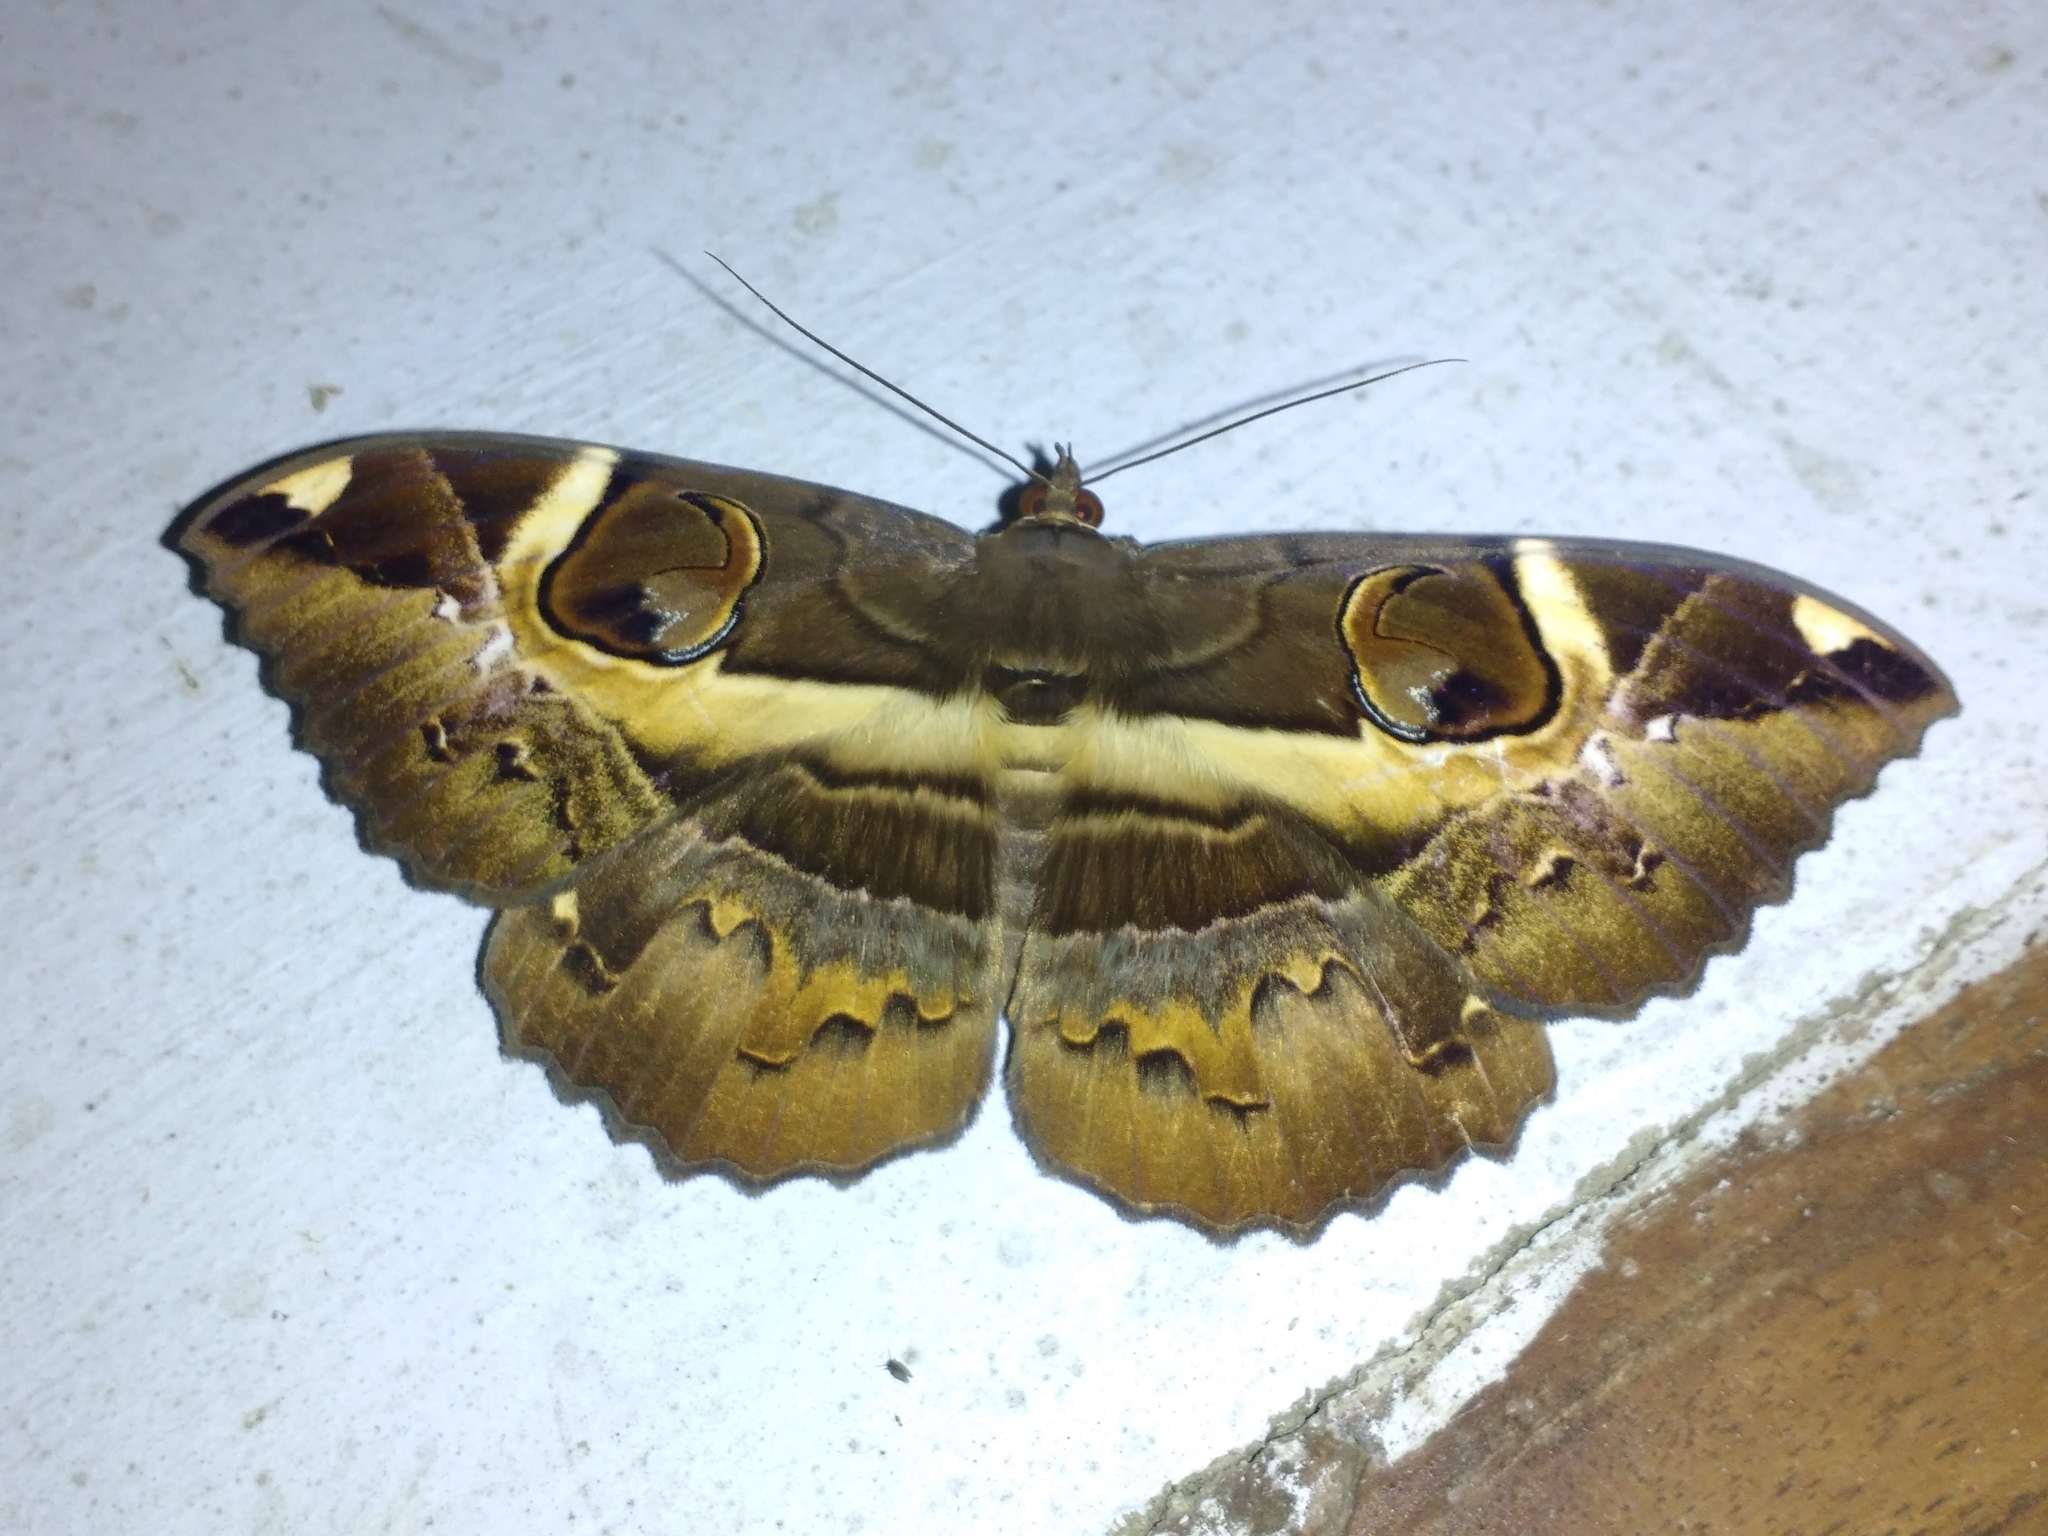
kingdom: Animalia
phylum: Arthropoda
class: Insecta
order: Lepidoptera
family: Erebidae
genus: Erebus
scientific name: Erebus ephesperis
